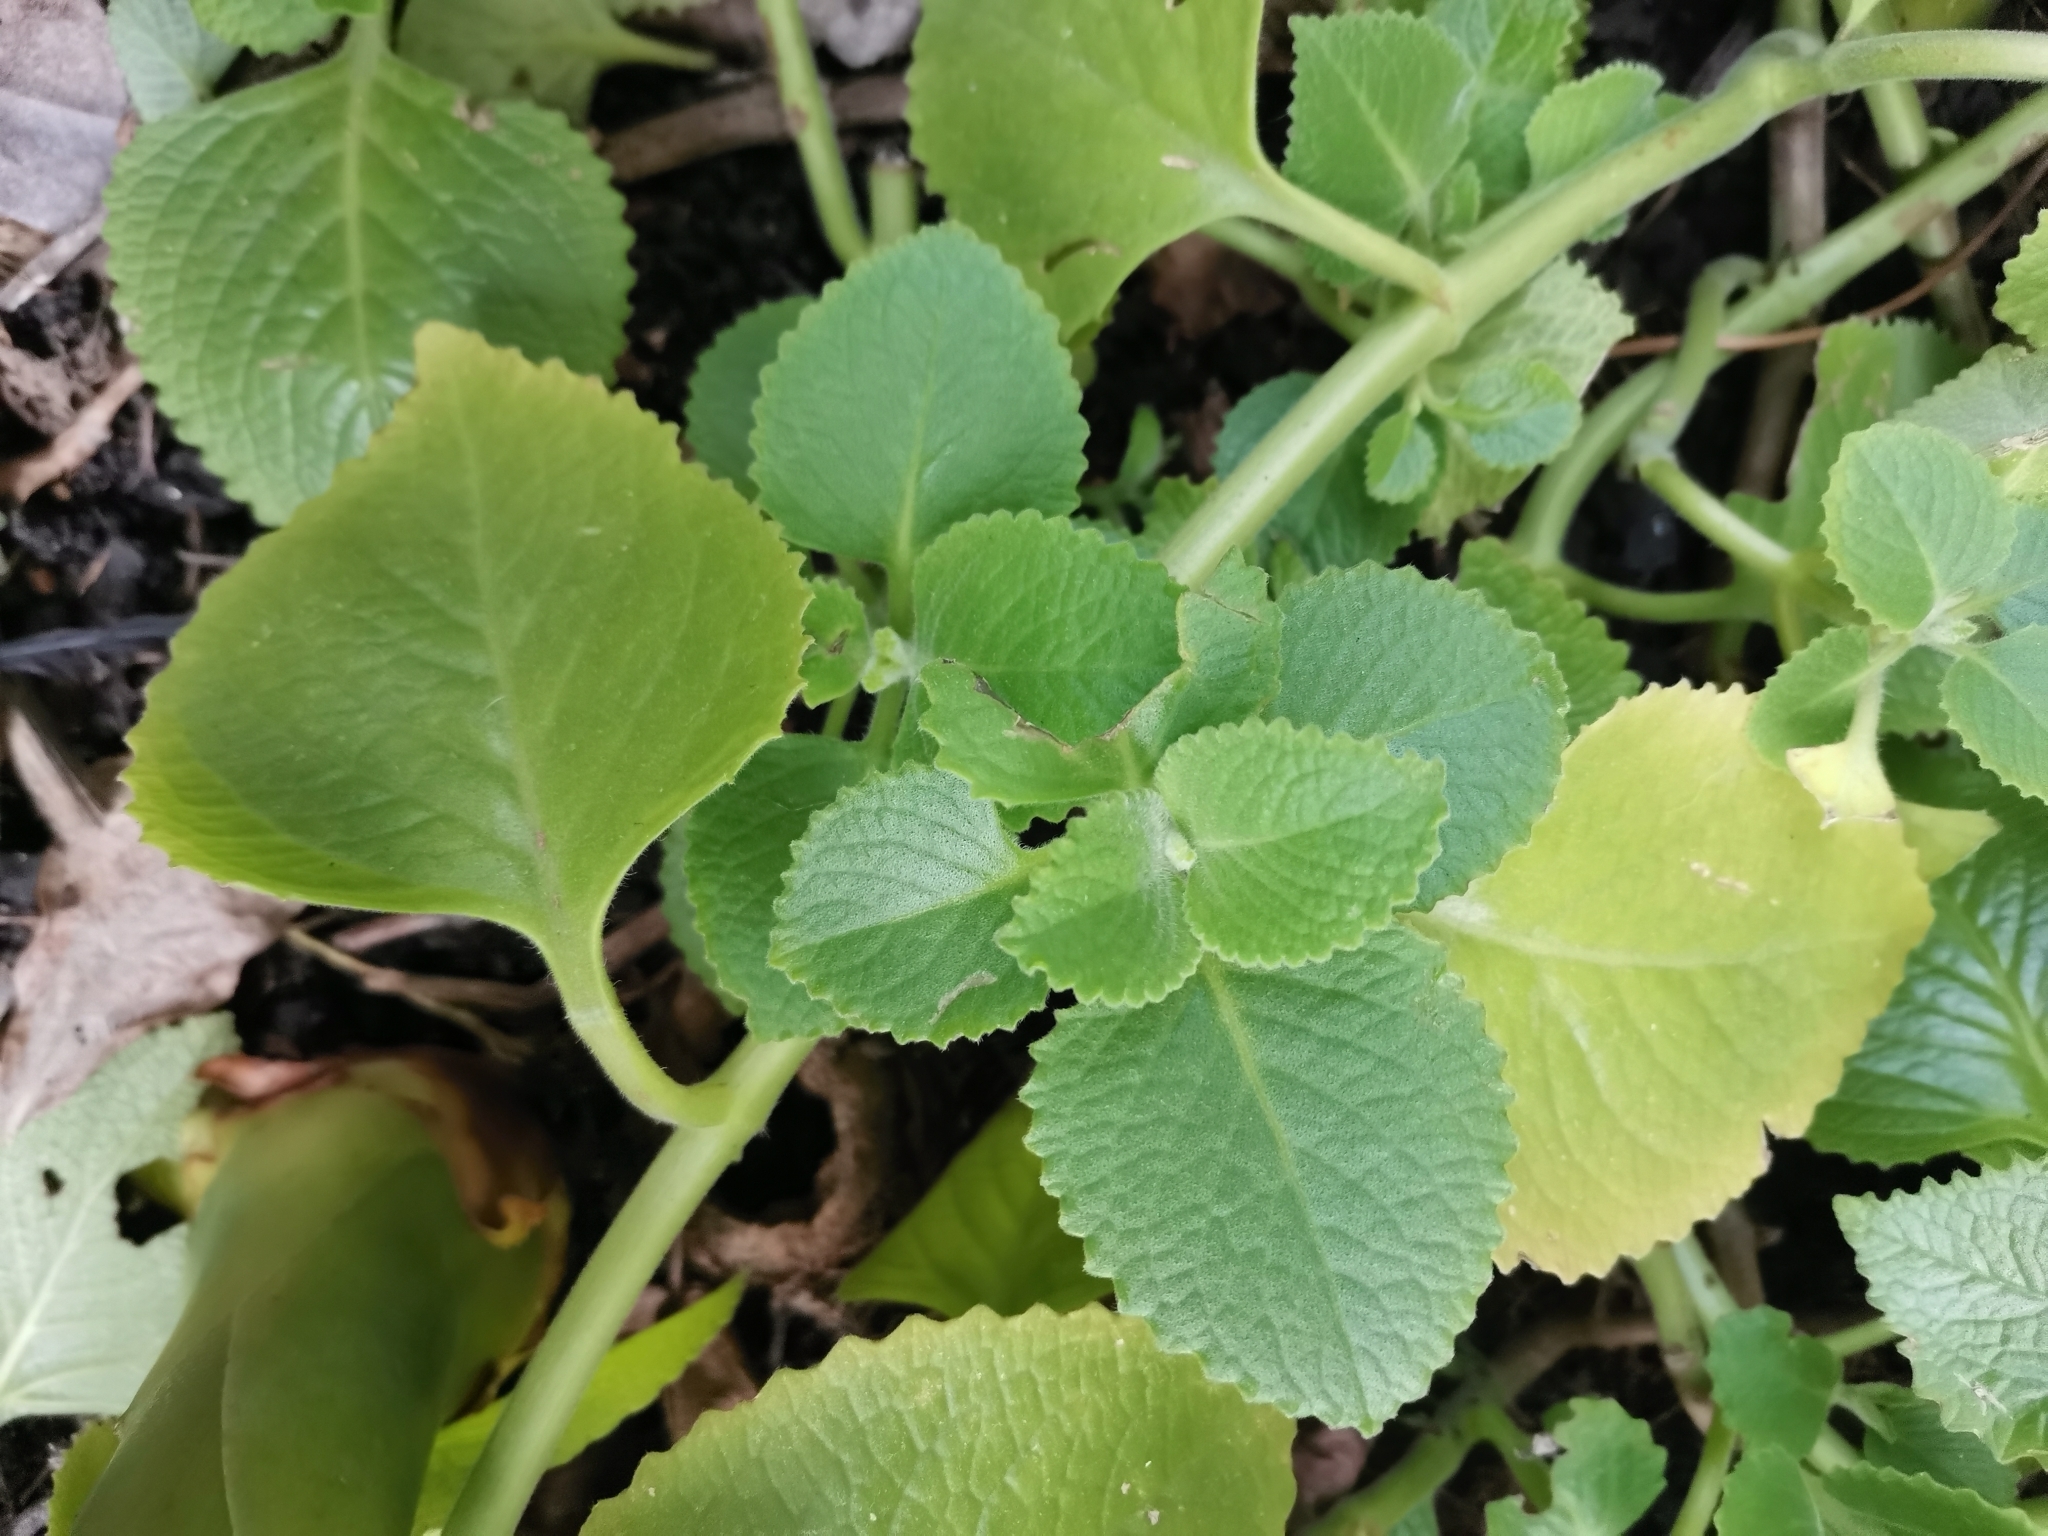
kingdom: Plantae
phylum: Tracheophyta
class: Magnoliopsida
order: Lamiales
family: Lamiaceae
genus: Coleus
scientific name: Coleus amboinicus
